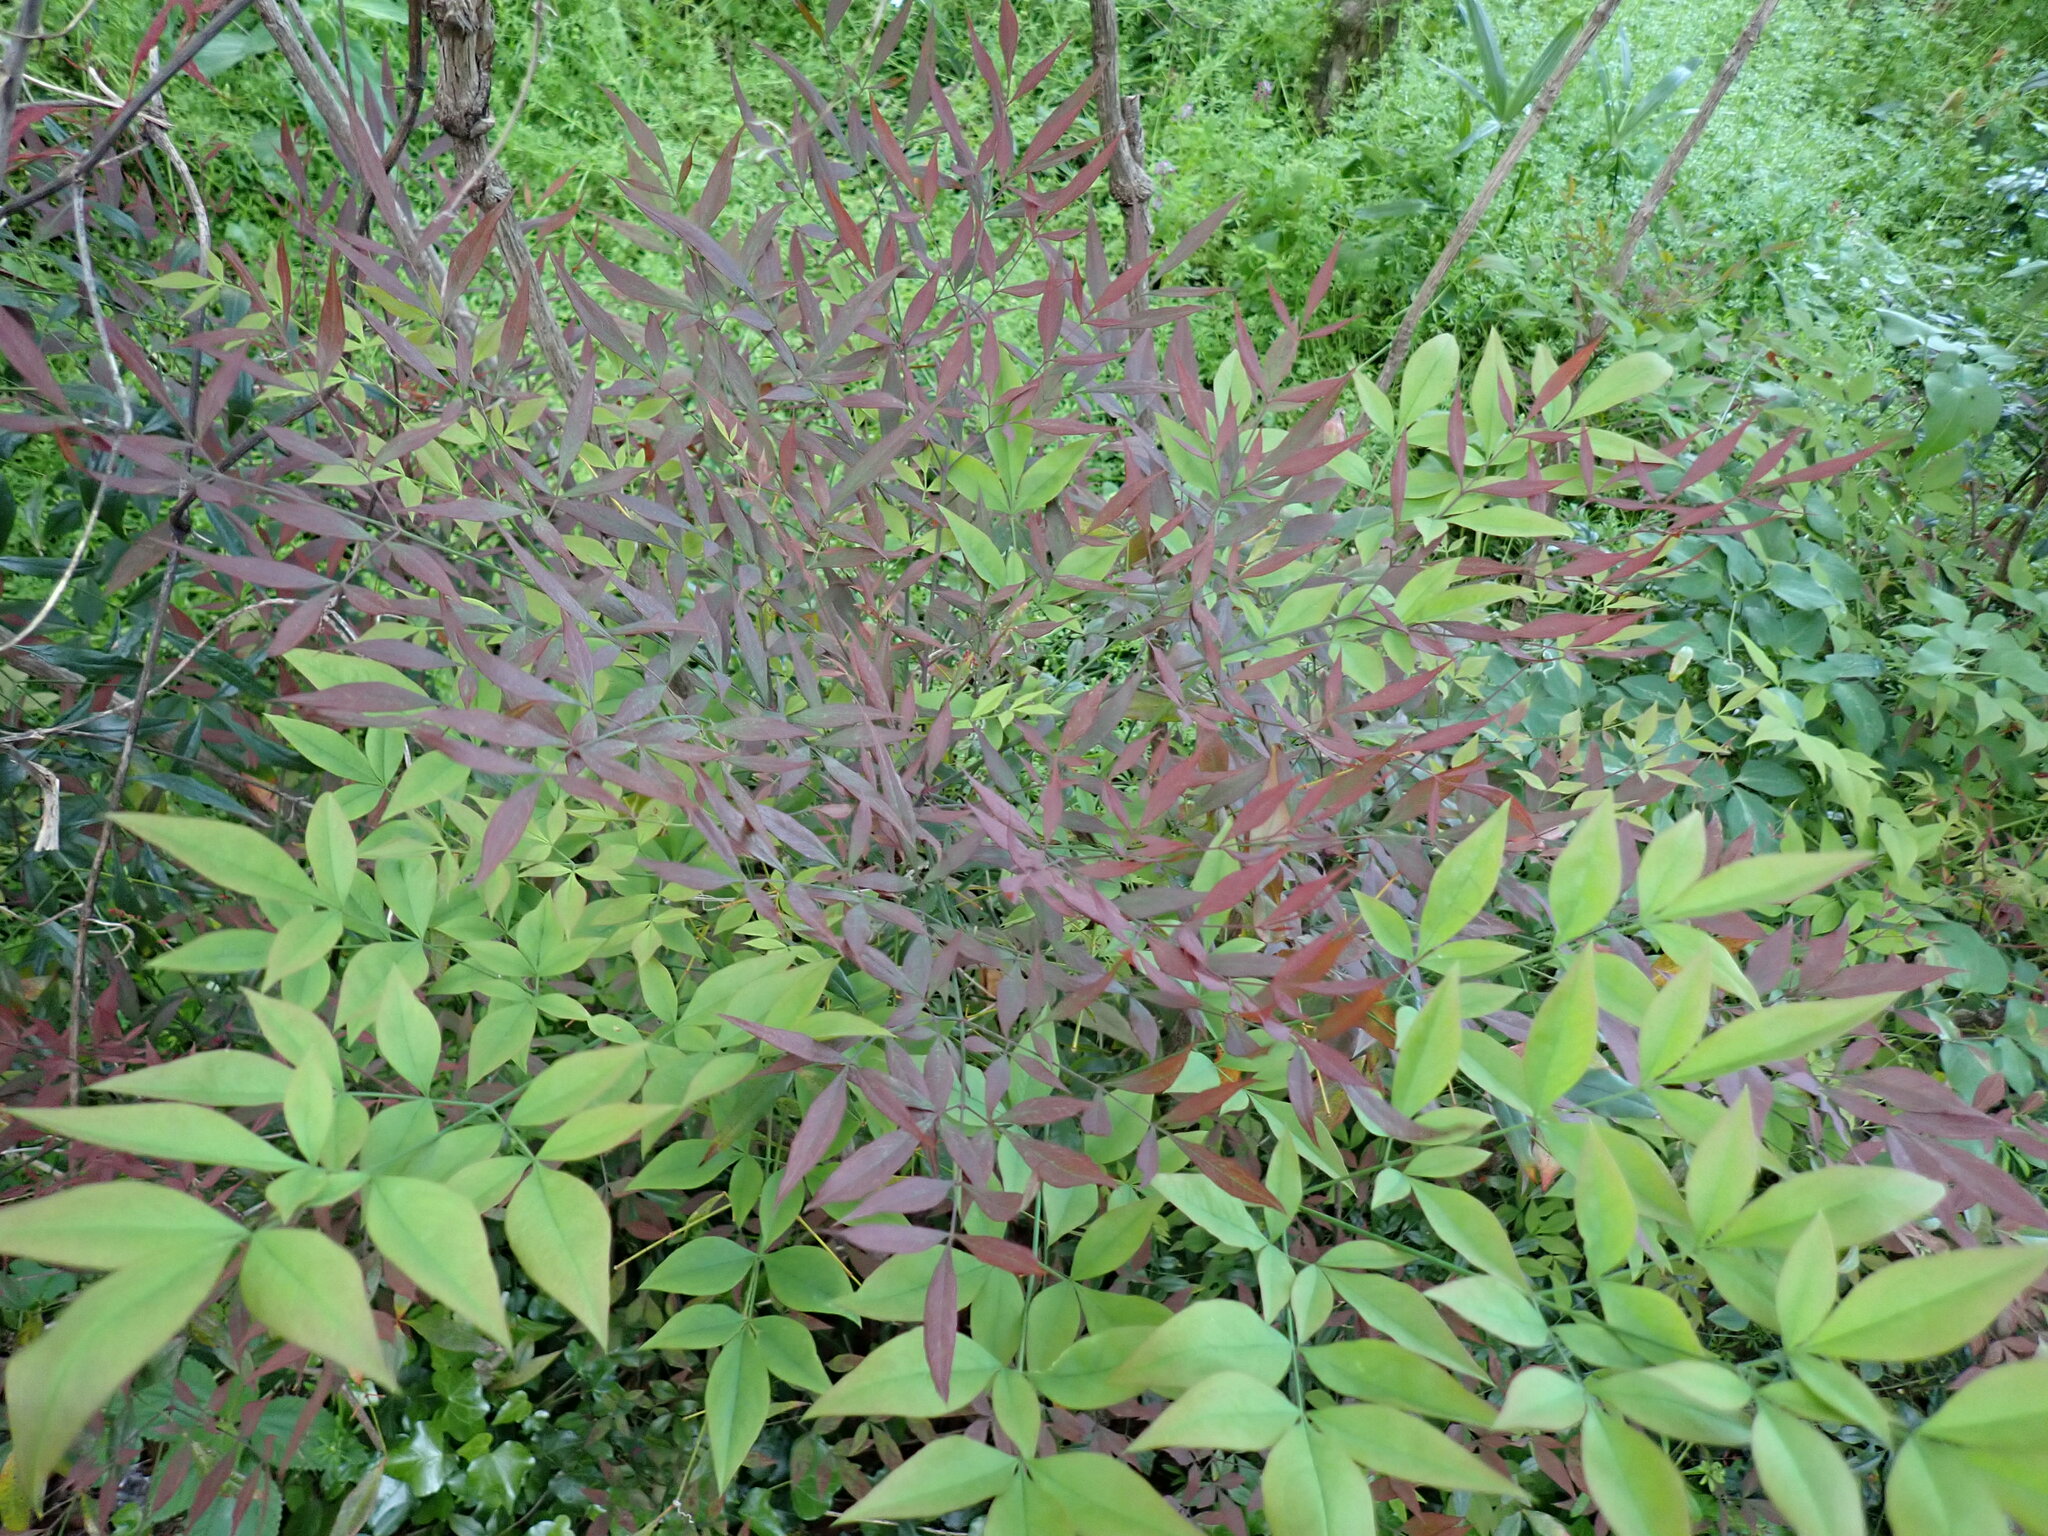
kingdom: Plantae
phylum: Tracheophyta
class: Magnoliopsida
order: Ranunculales
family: Berberidaceae
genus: Nandina
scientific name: Nandina domestica
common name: Sacred bamboo
